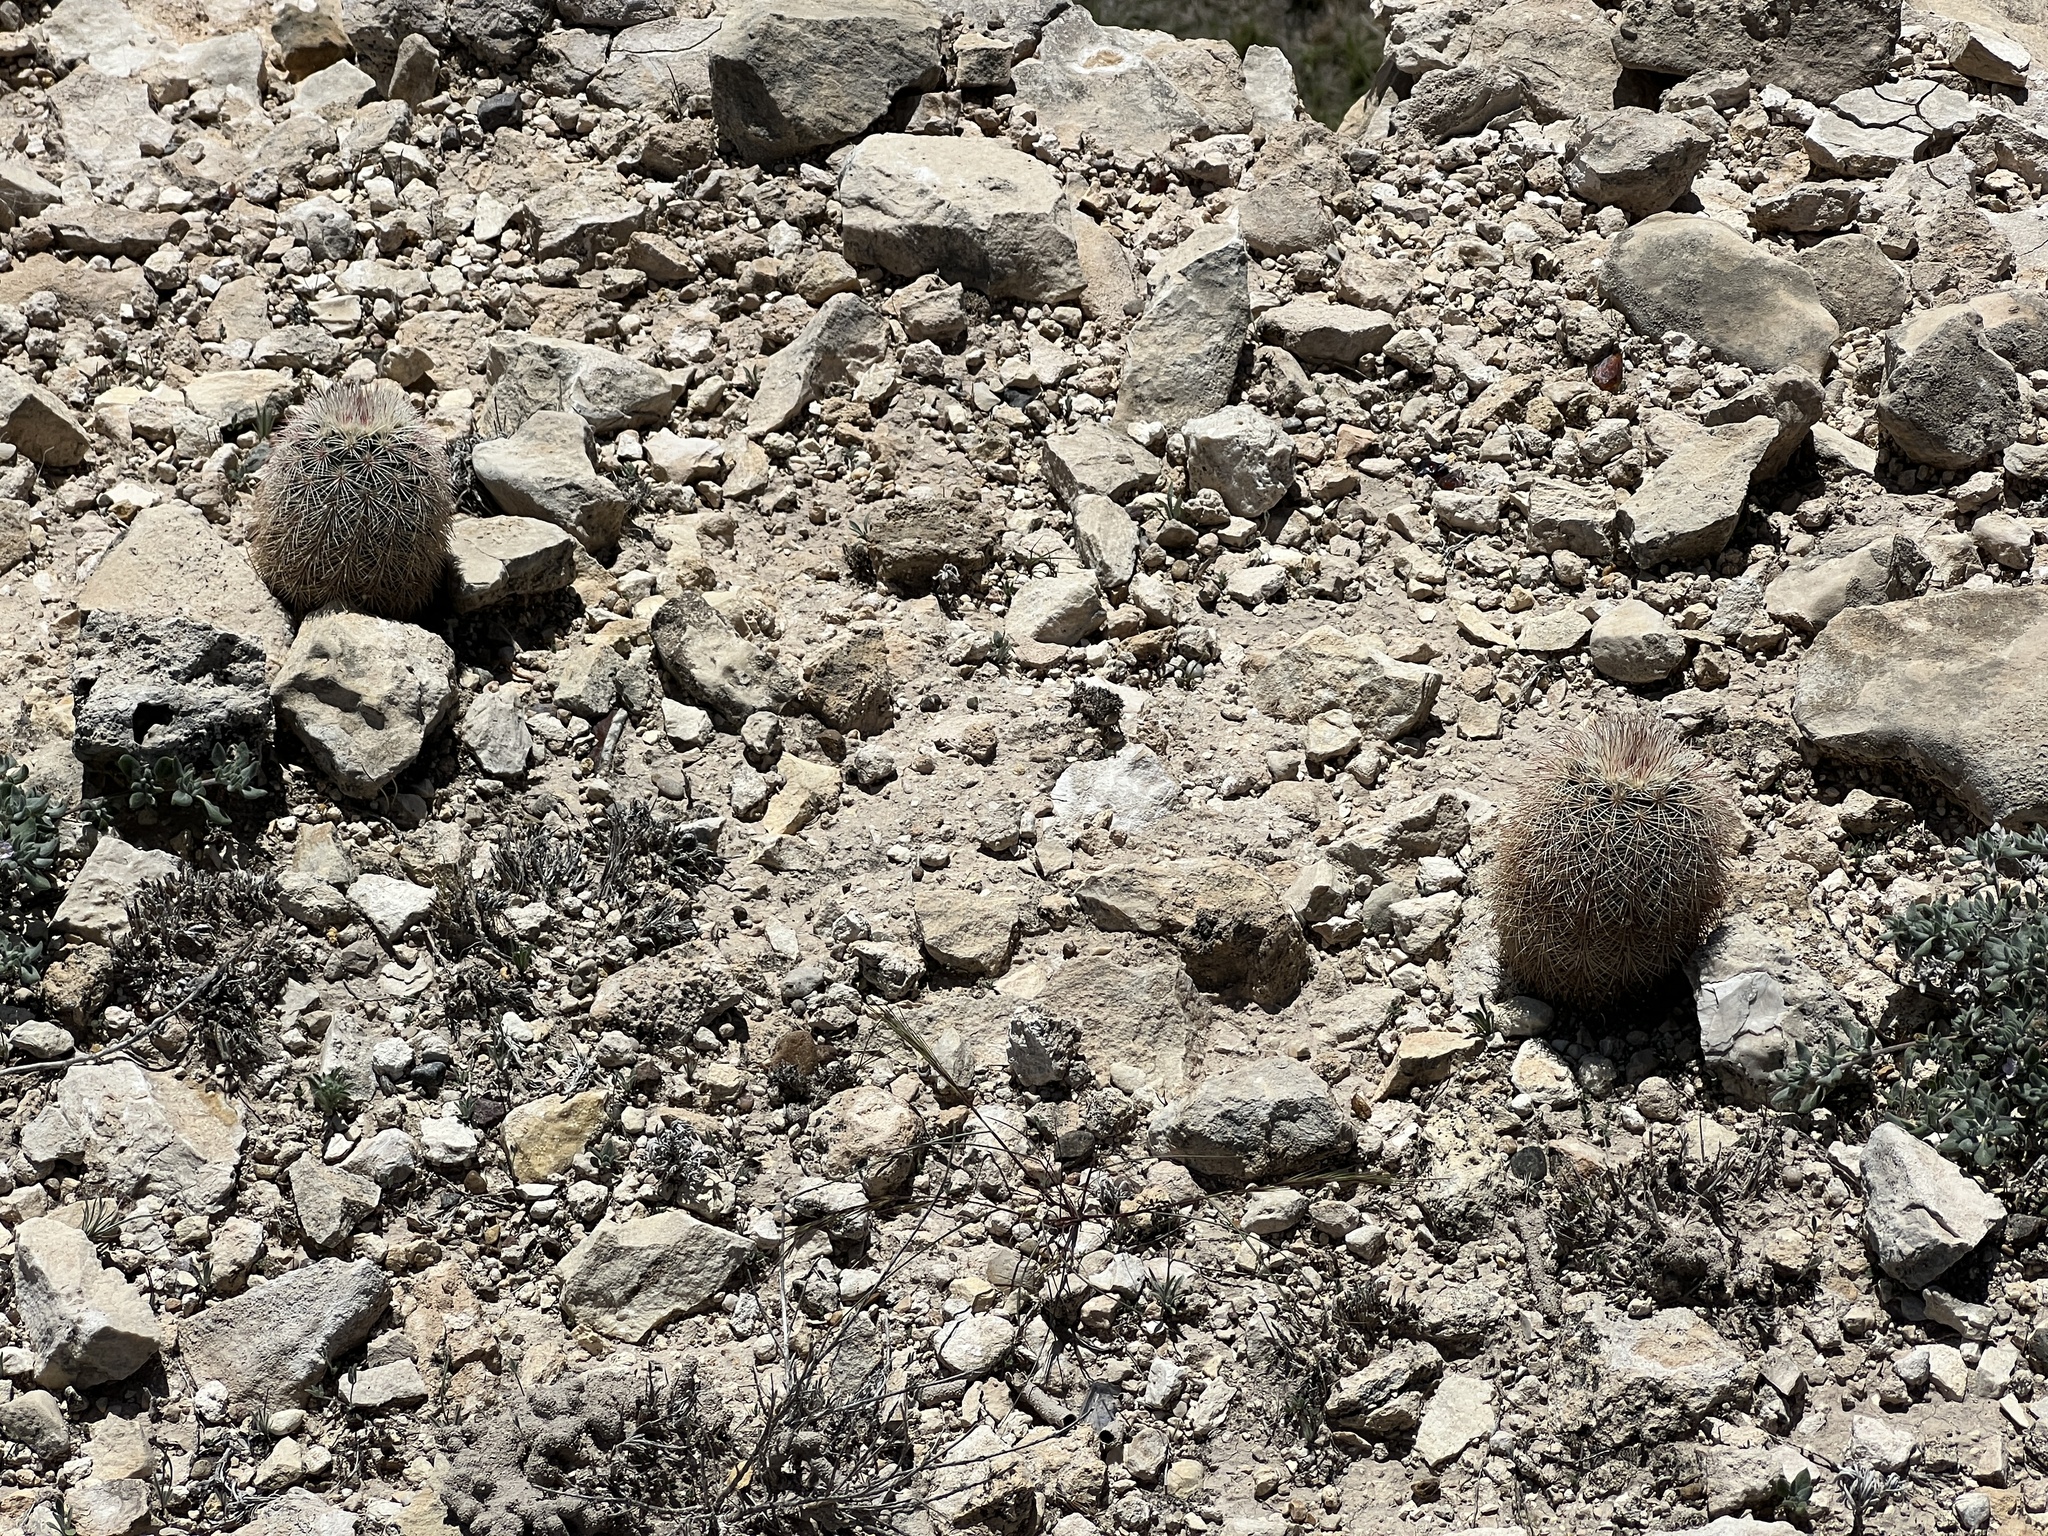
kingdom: Plantae
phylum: Tracheophyta
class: Magnoliopsida
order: Caryophyllales
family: Cactaceae
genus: Echinocereus
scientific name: Echinocereus dasyacanthus
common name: Spiny hedgehog cactus
